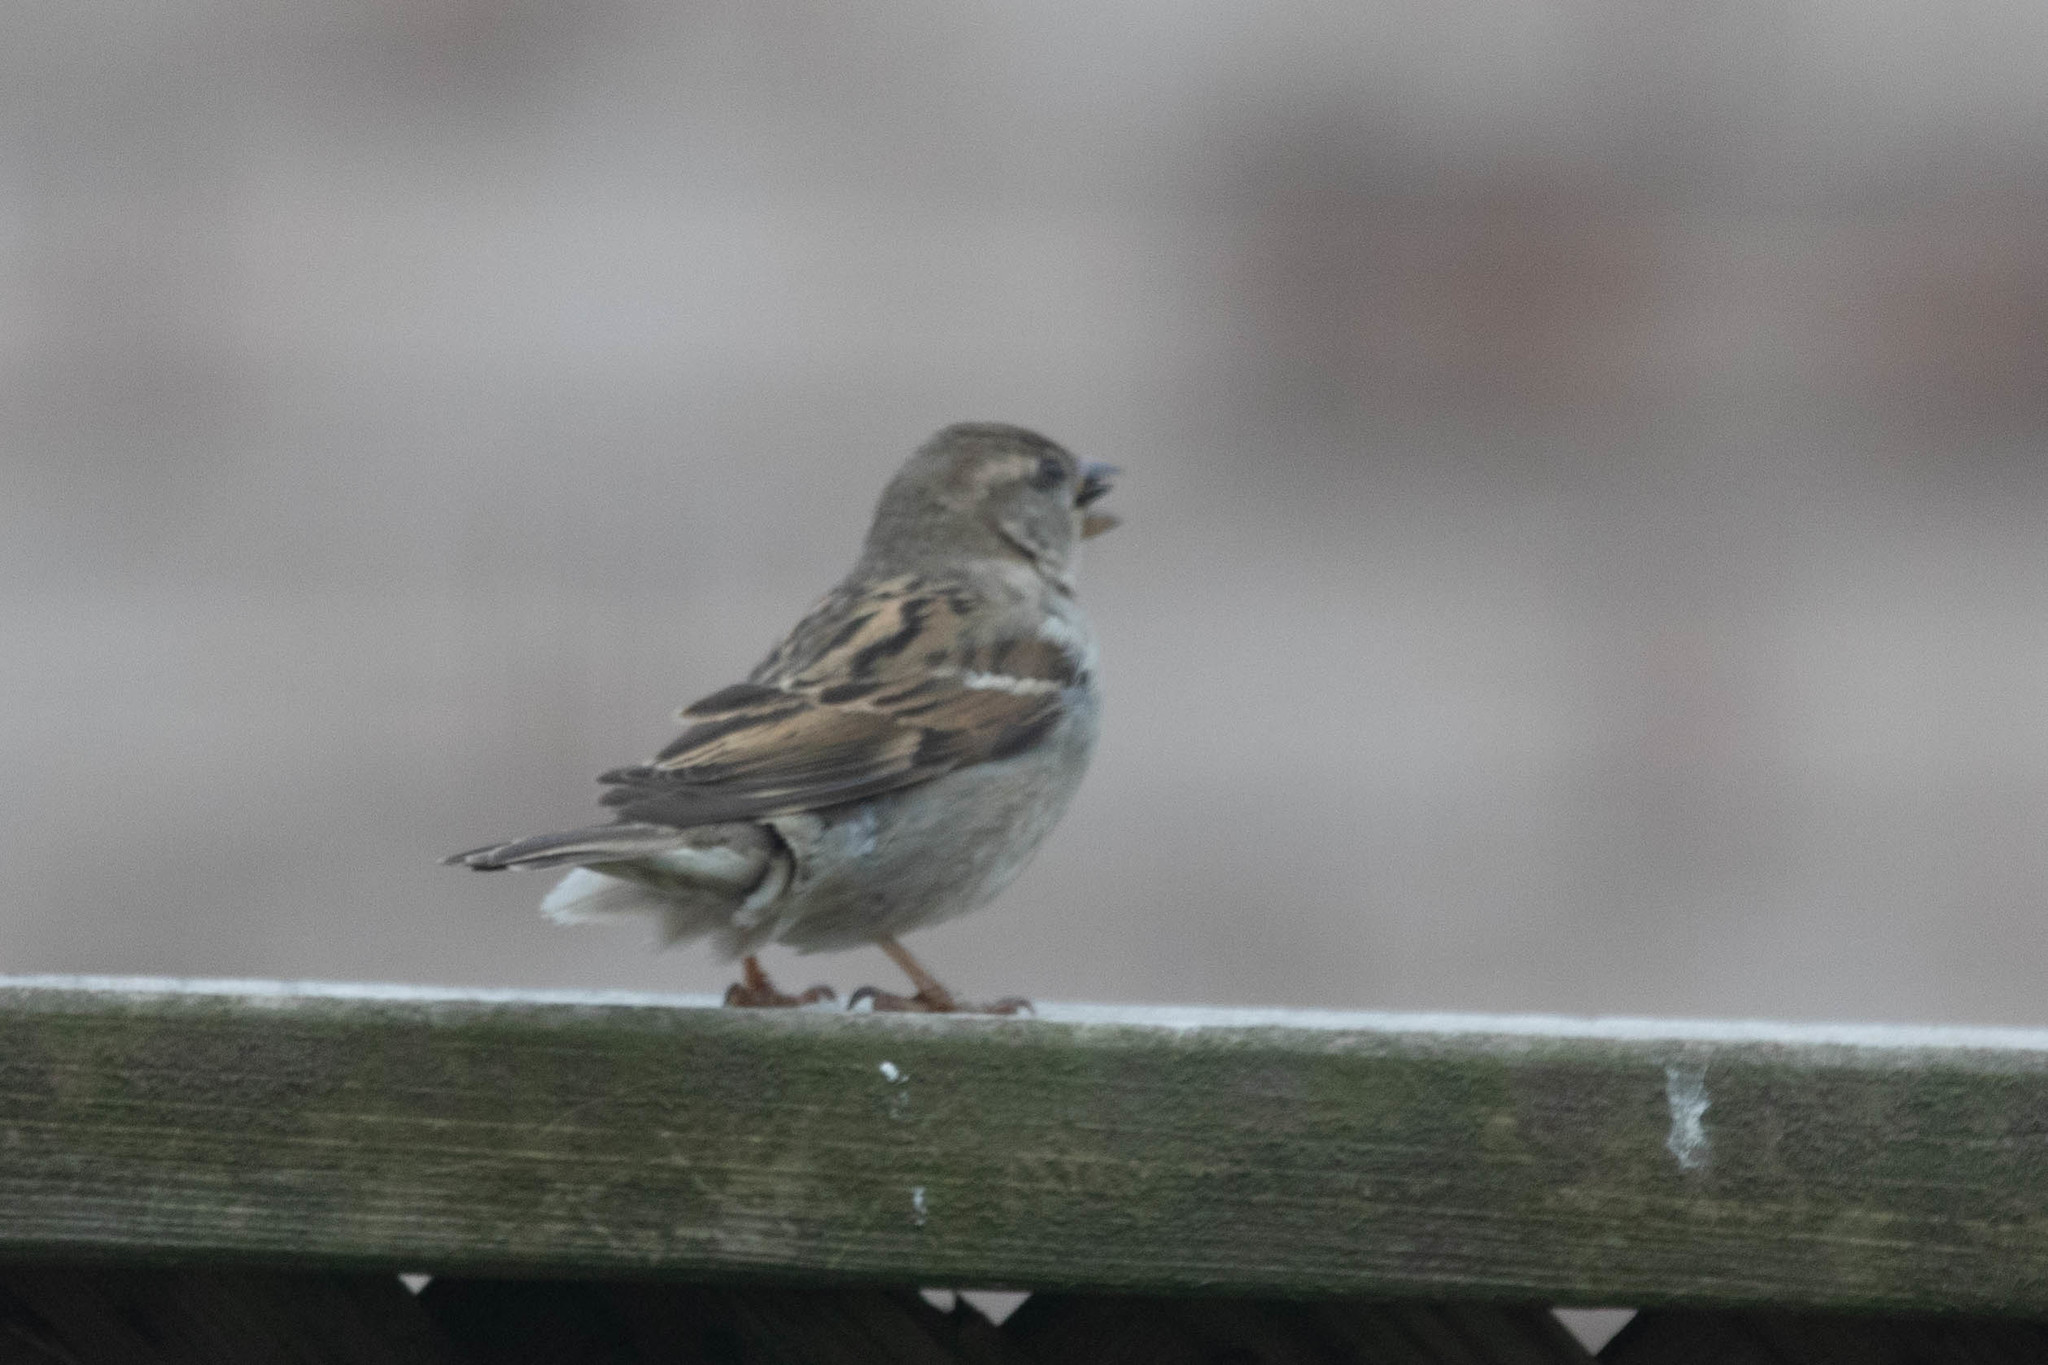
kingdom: Animalia
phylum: Chordata
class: Aves
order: Passeriformes
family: Passeridae
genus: Passer
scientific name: Passer domesticus
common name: House sparrow
